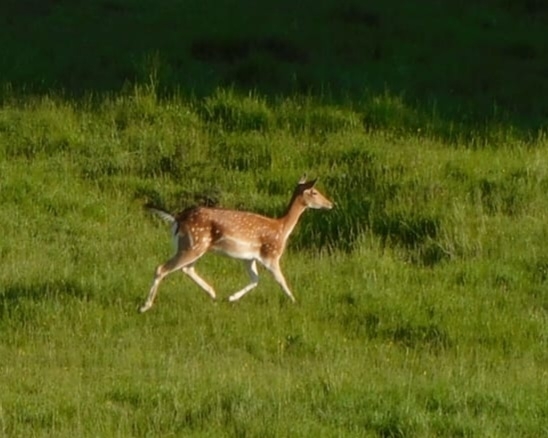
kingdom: Animalia
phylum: Chordata
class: Mammalia
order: Artiodactyla
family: Cervidae
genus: Dama
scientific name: Dama dama
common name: Fallow deer
